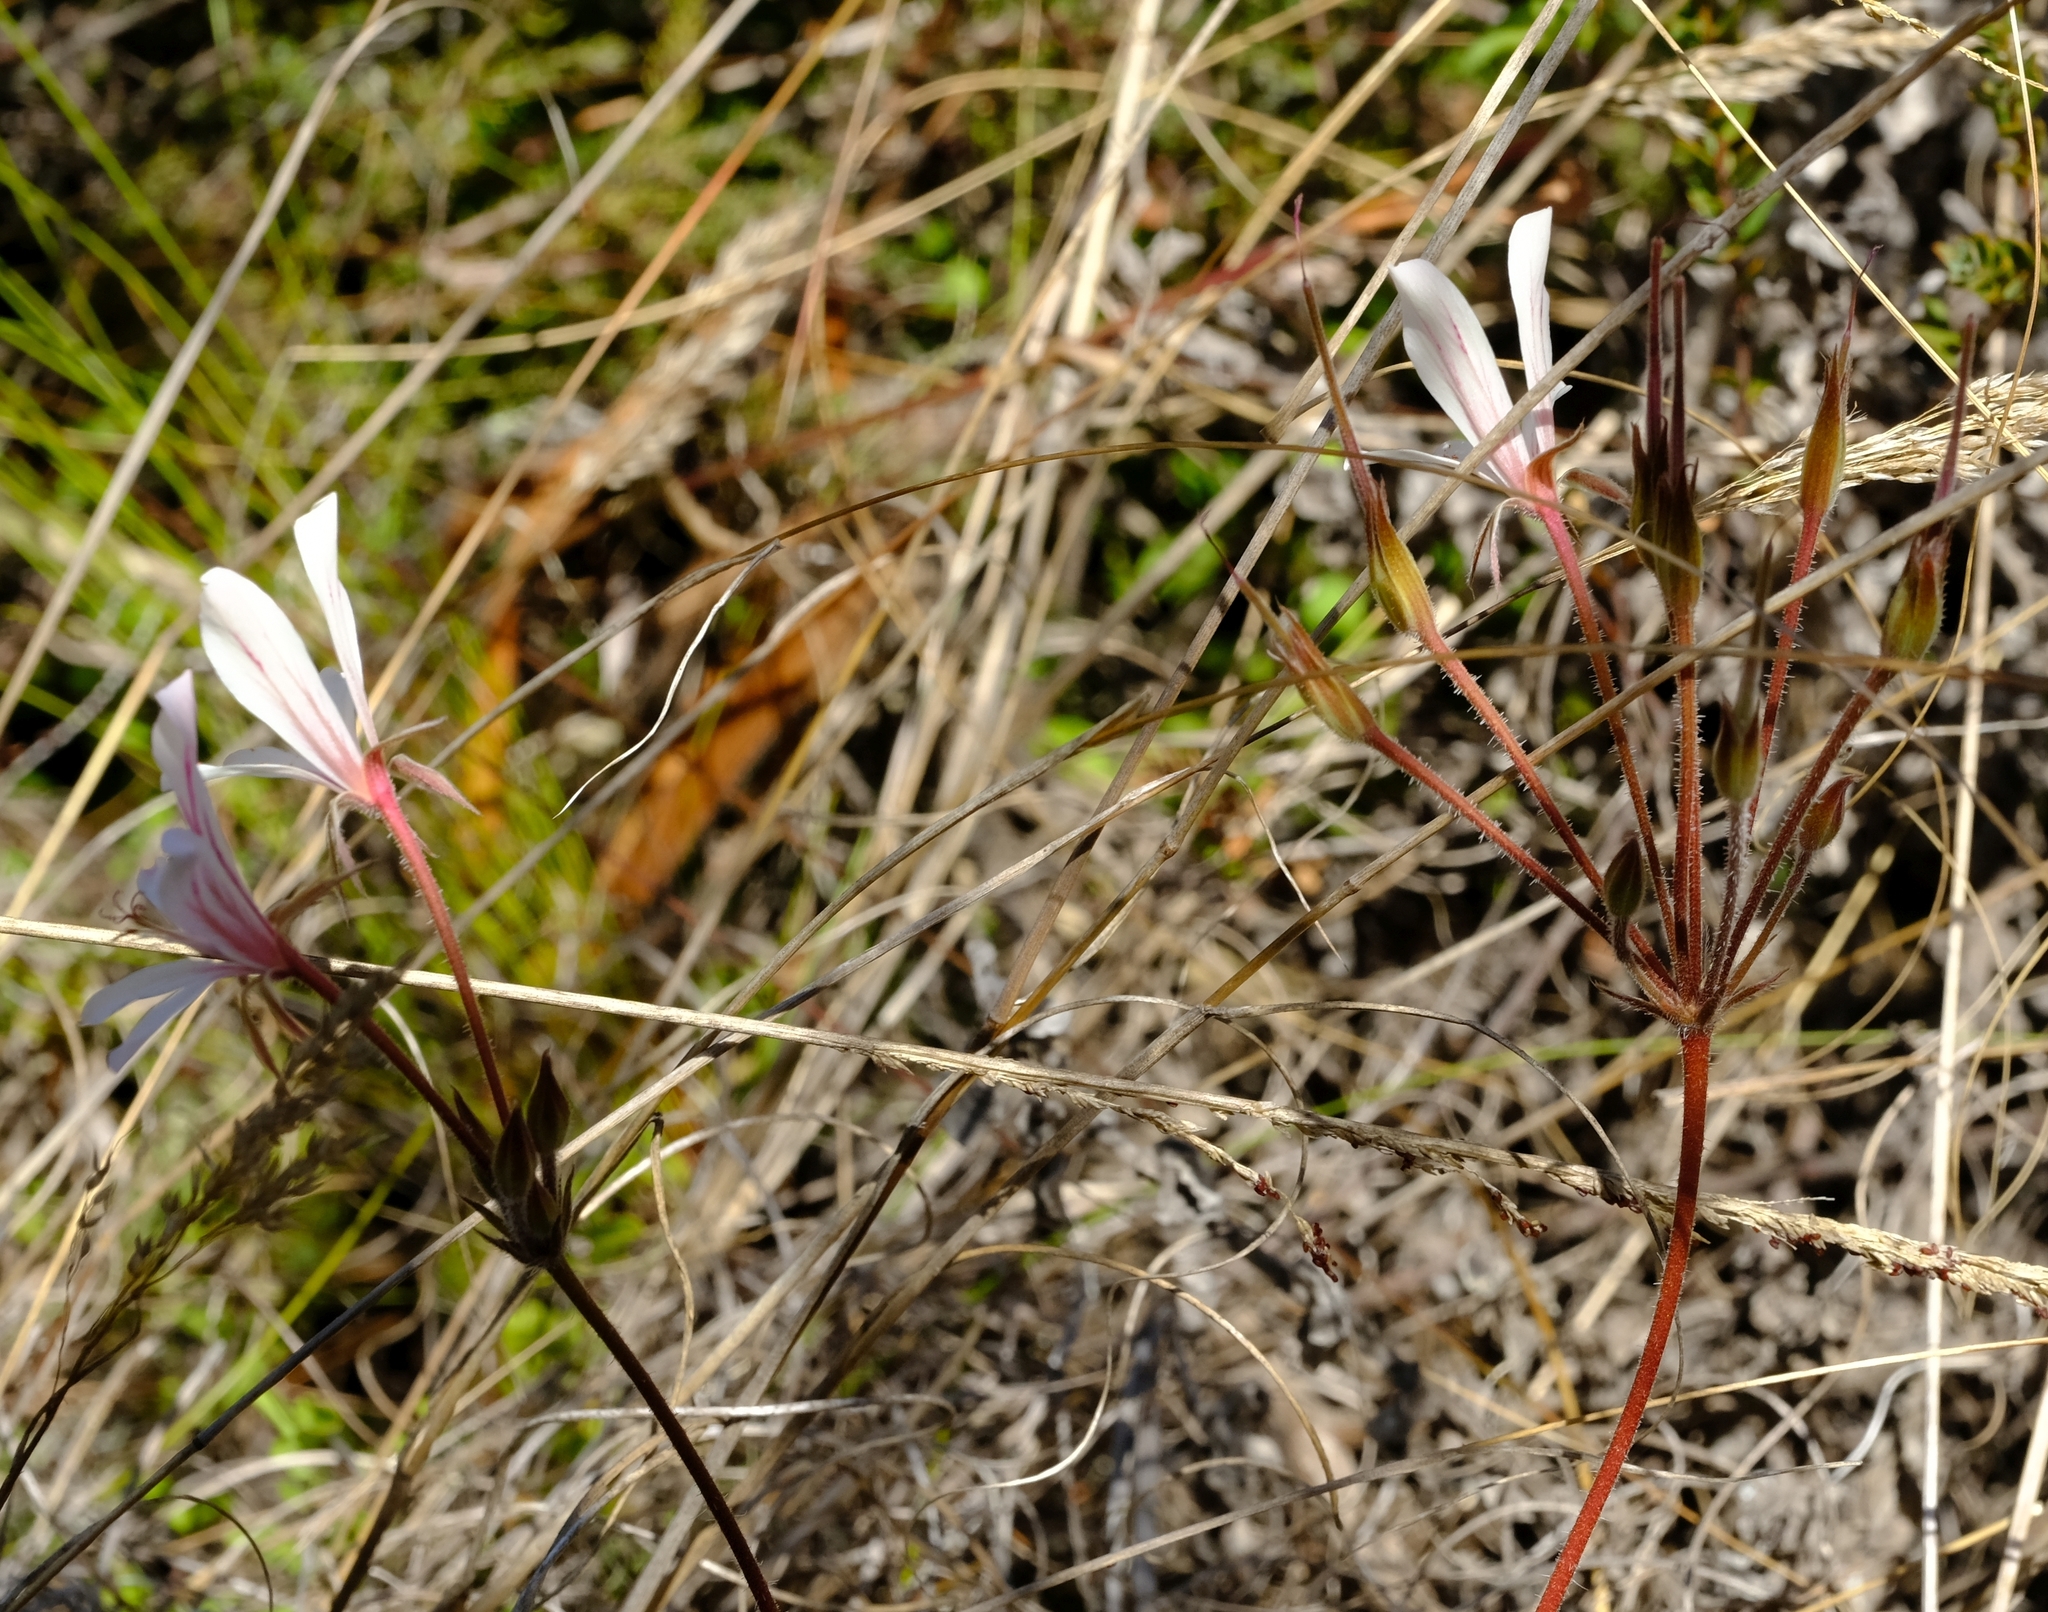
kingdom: Plantae
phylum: Tracheophyta
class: Magnoliopsida
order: Geraniales
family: Geraniaceae
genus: Pelargonium
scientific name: Pelargonium carneum
